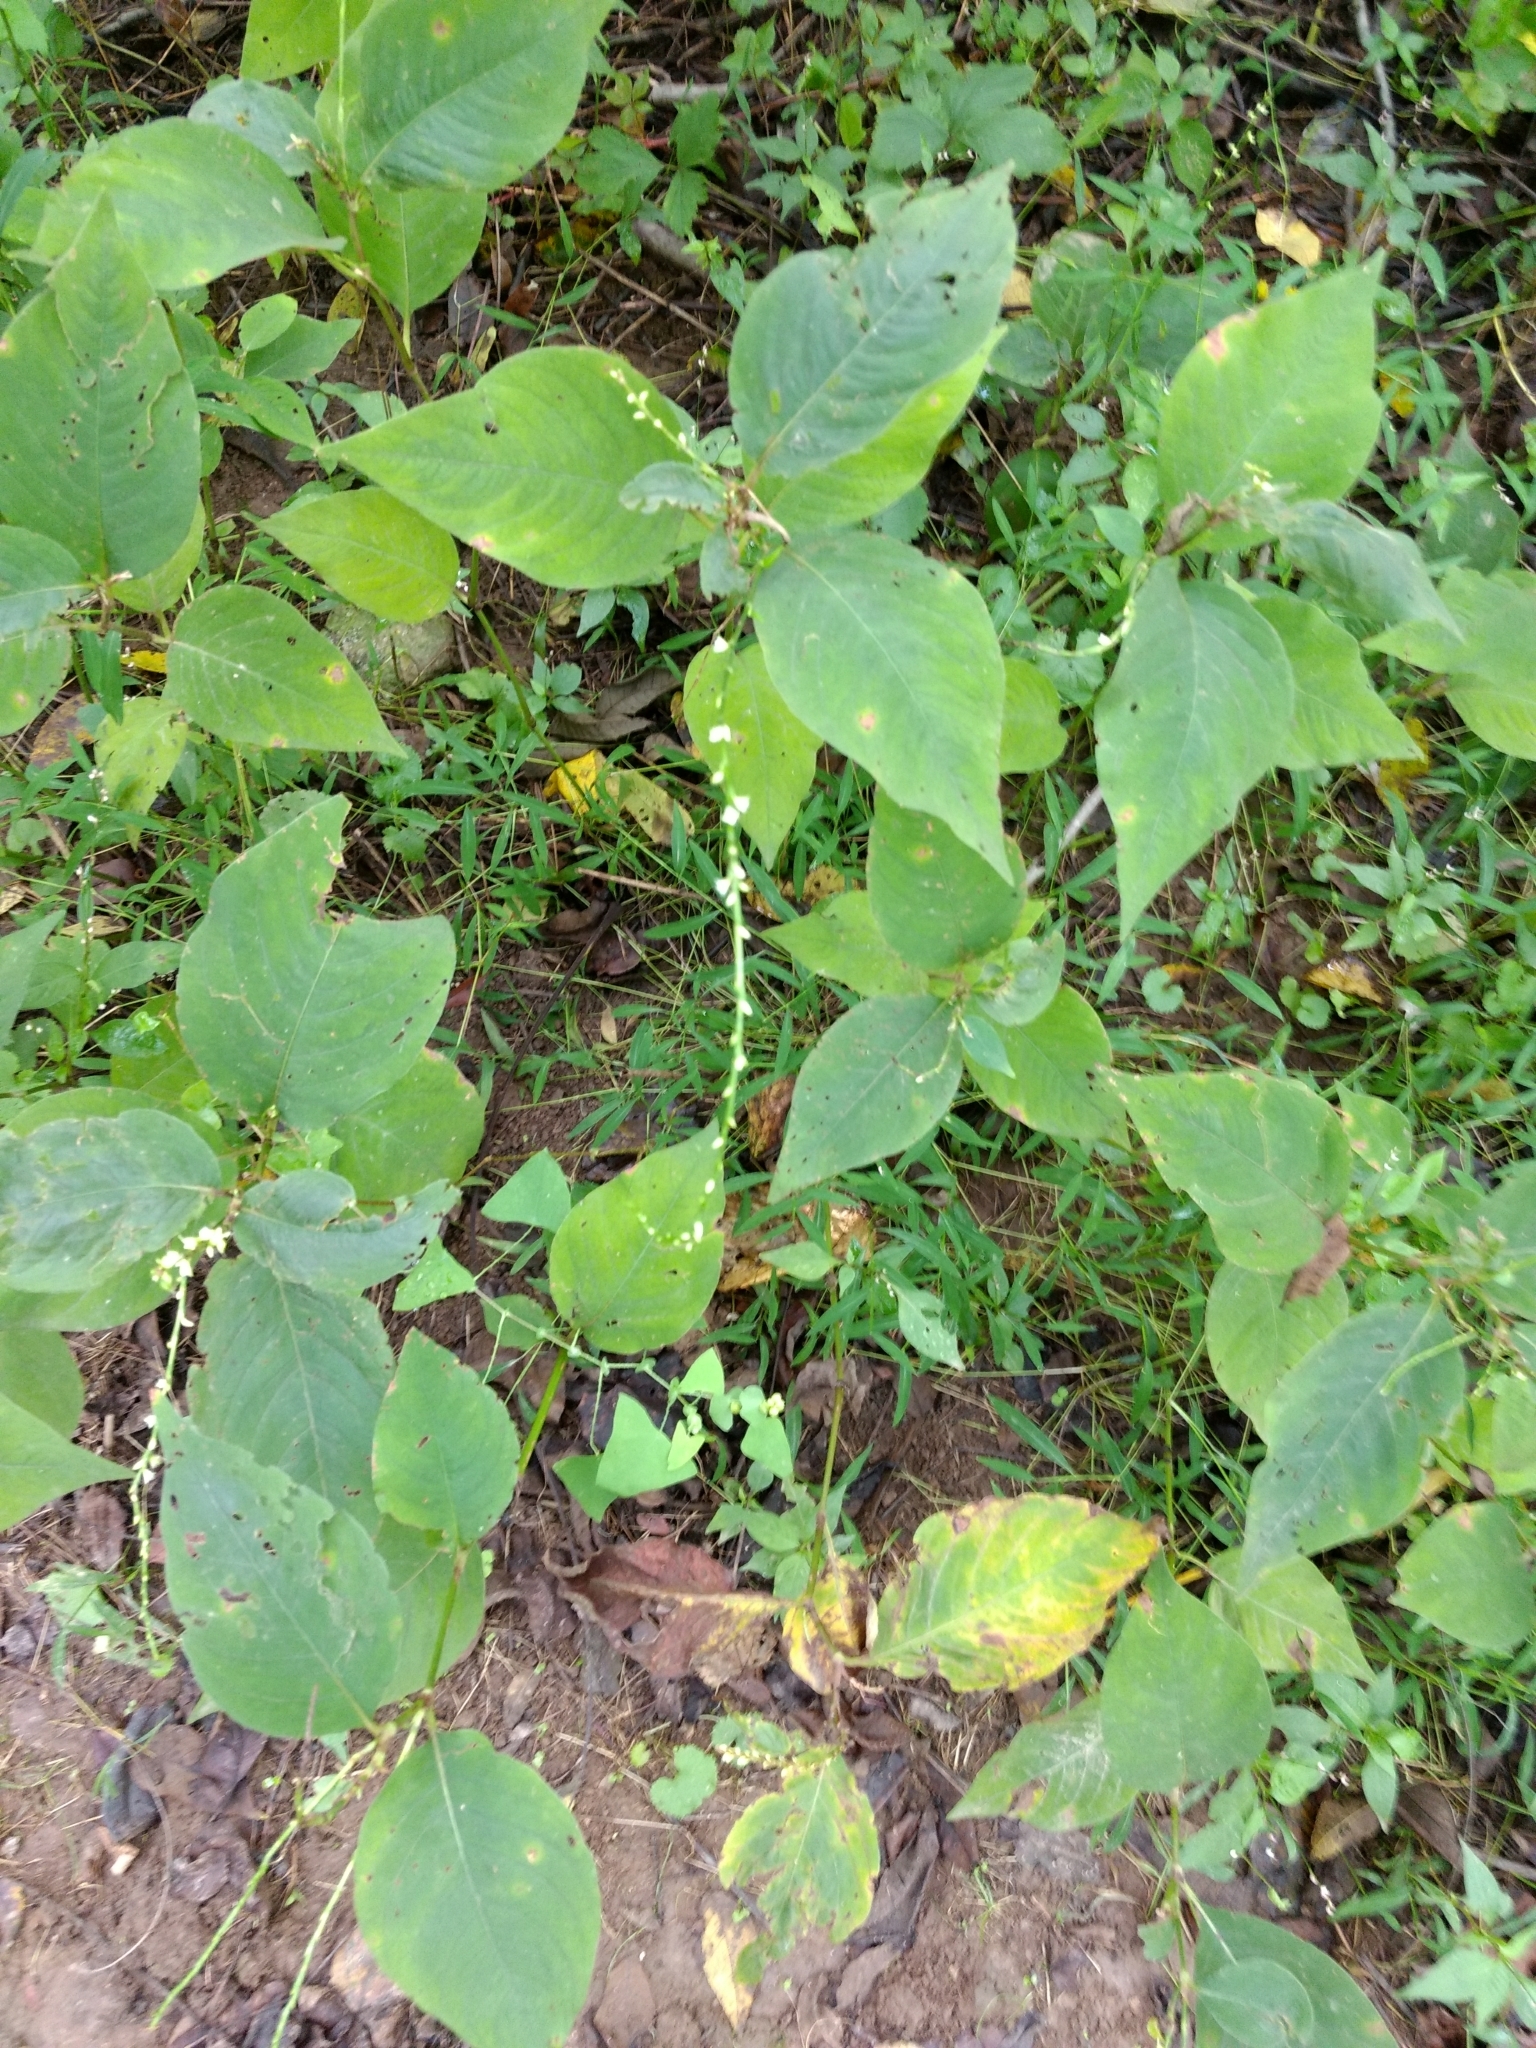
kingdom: Plantae
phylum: Tracheophyta
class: Magnoliopsida
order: Caryophyllales
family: Polygonaceae
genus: Persicaria
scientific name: Persicaria virginiana
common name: Jumpseed
